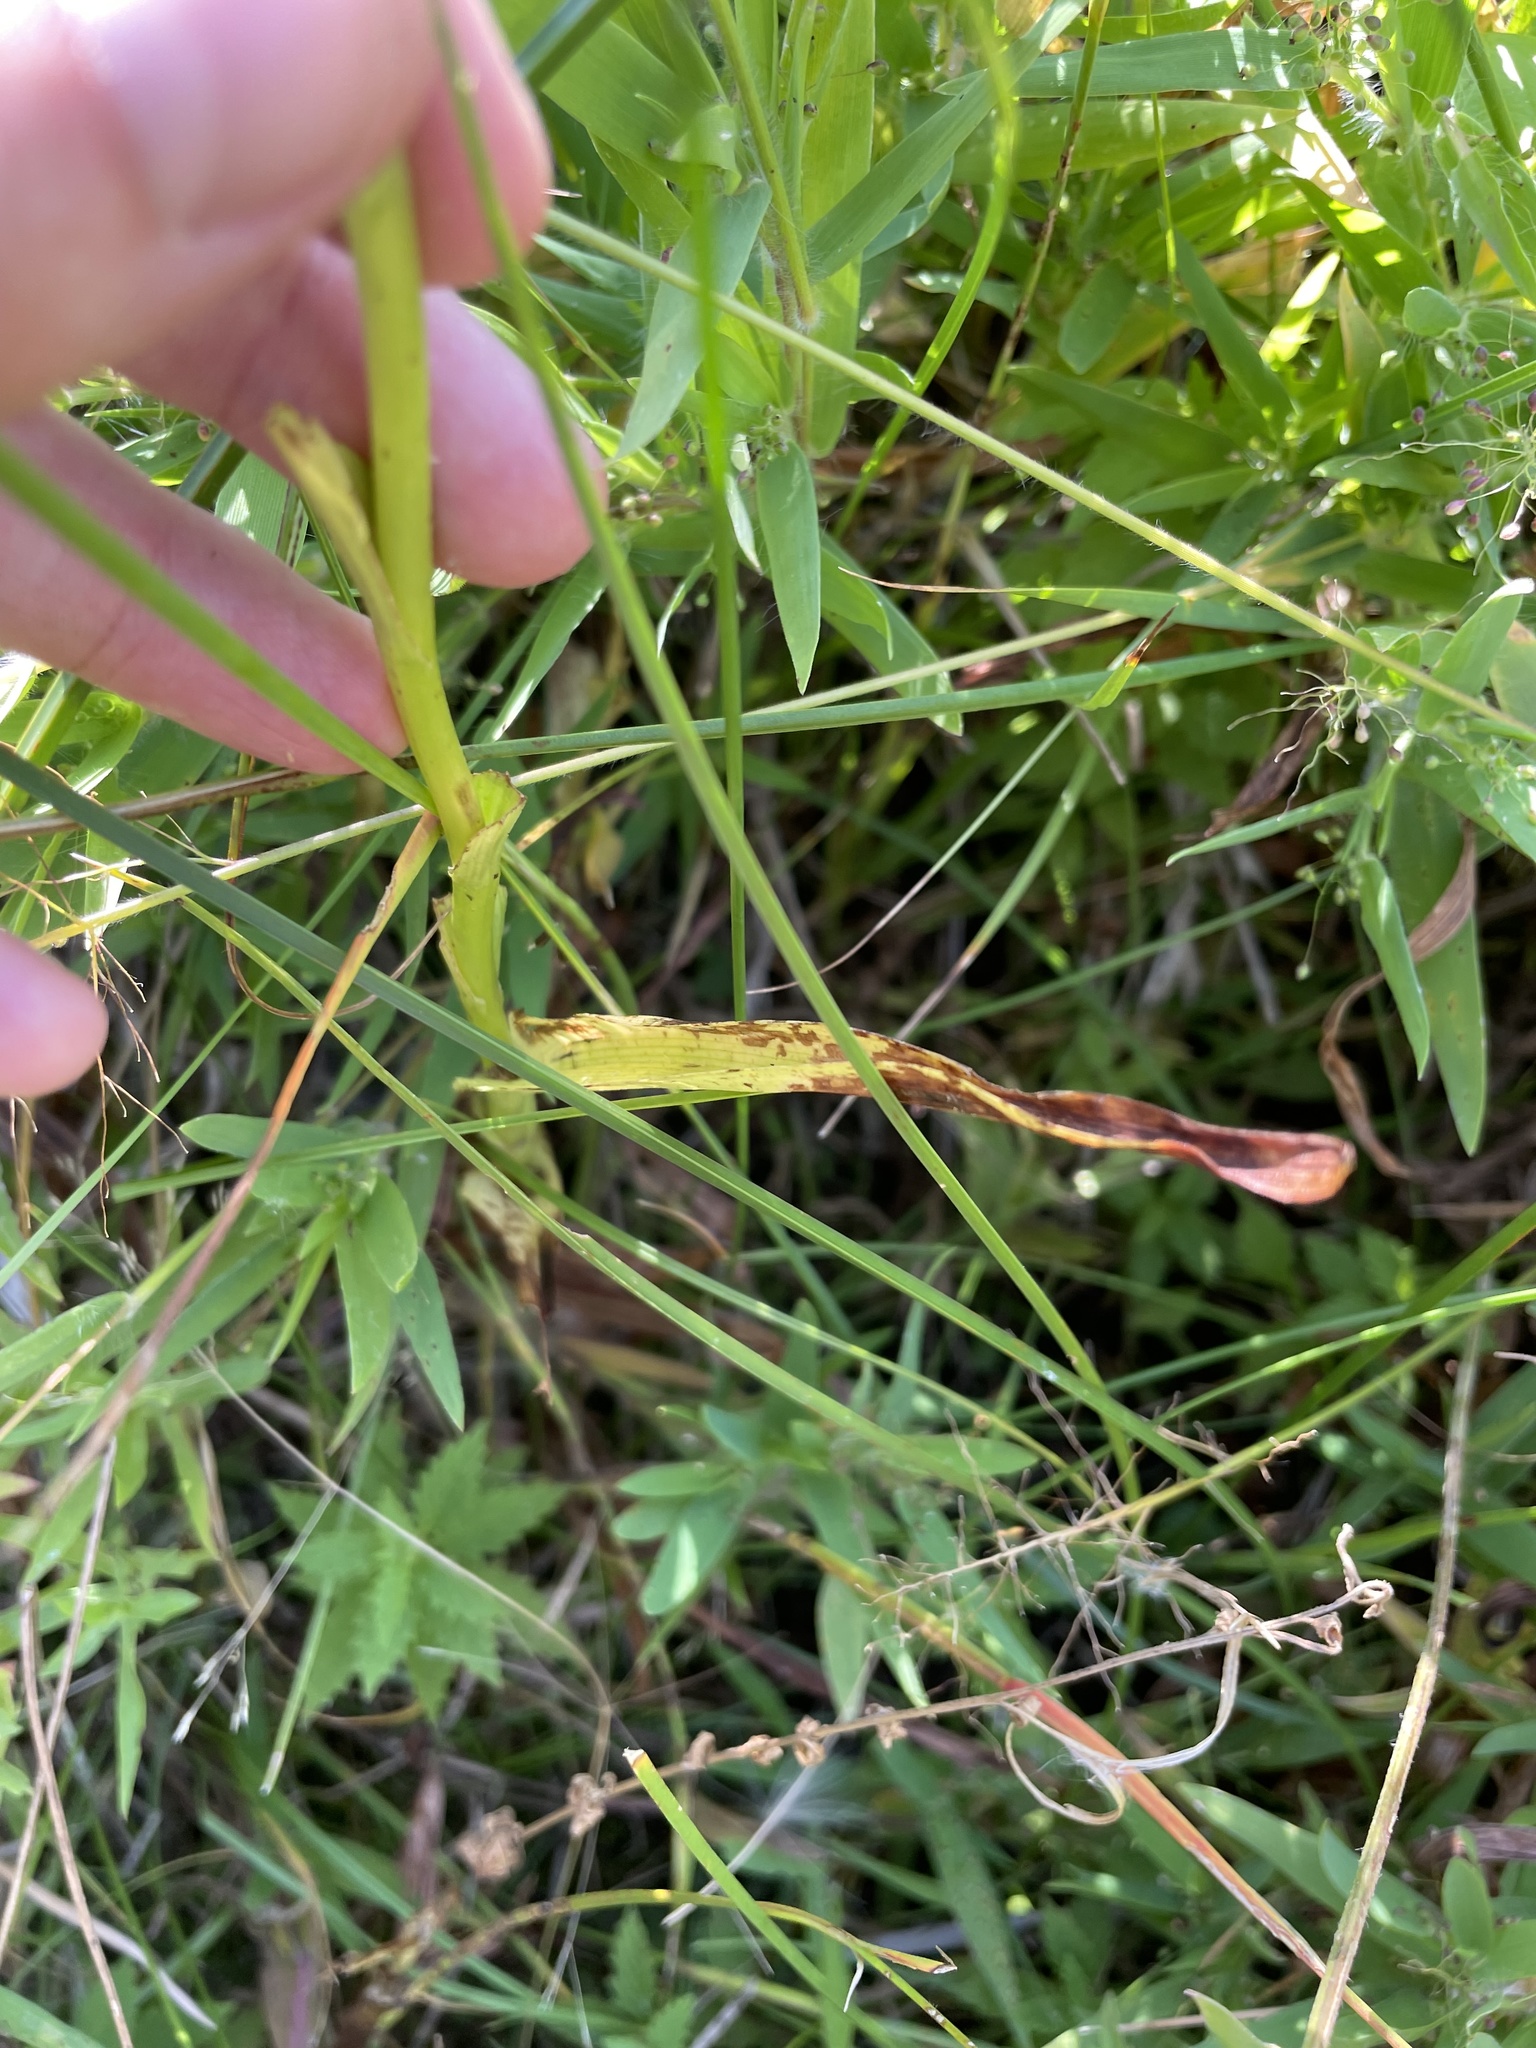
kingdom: Plantae
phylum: Tracheophyta
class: Liliopsida
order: Asparagales
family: Orchidaceae
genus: Epipactis
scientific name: Epipactis gigantea
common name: Chatterbox
